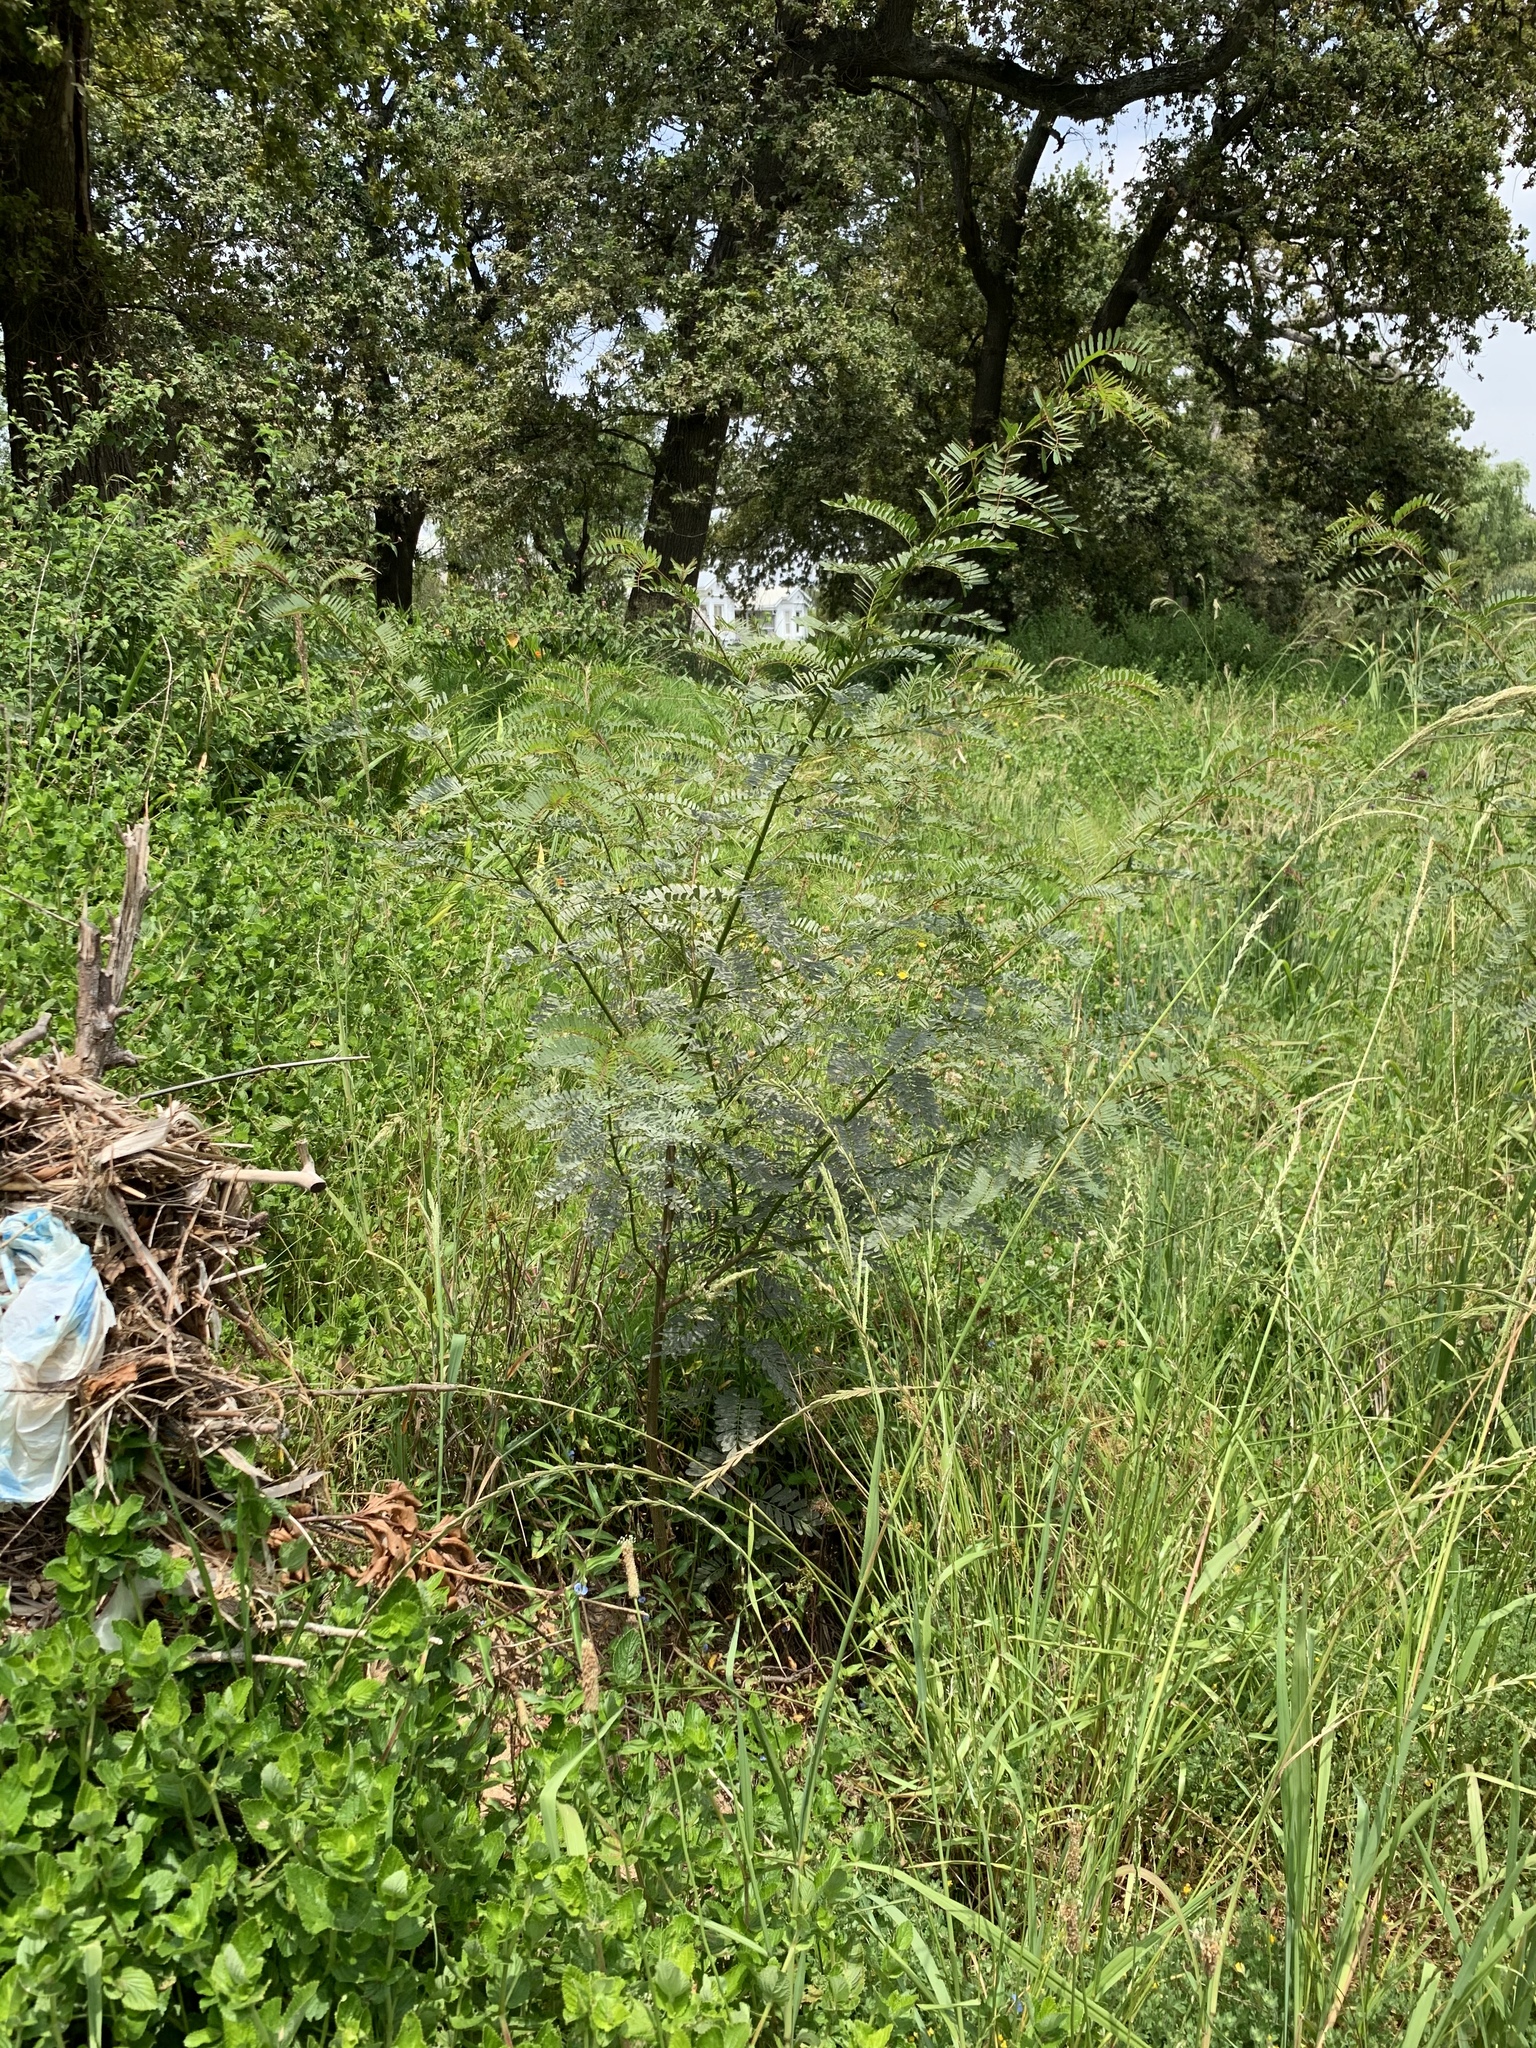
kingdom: Plantae
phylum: Tracheophyta
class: Magnoliopsida
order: Fabales
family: Fabaceae
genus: Sesbania
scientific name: Sesbania punicea
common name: Rattlebox
